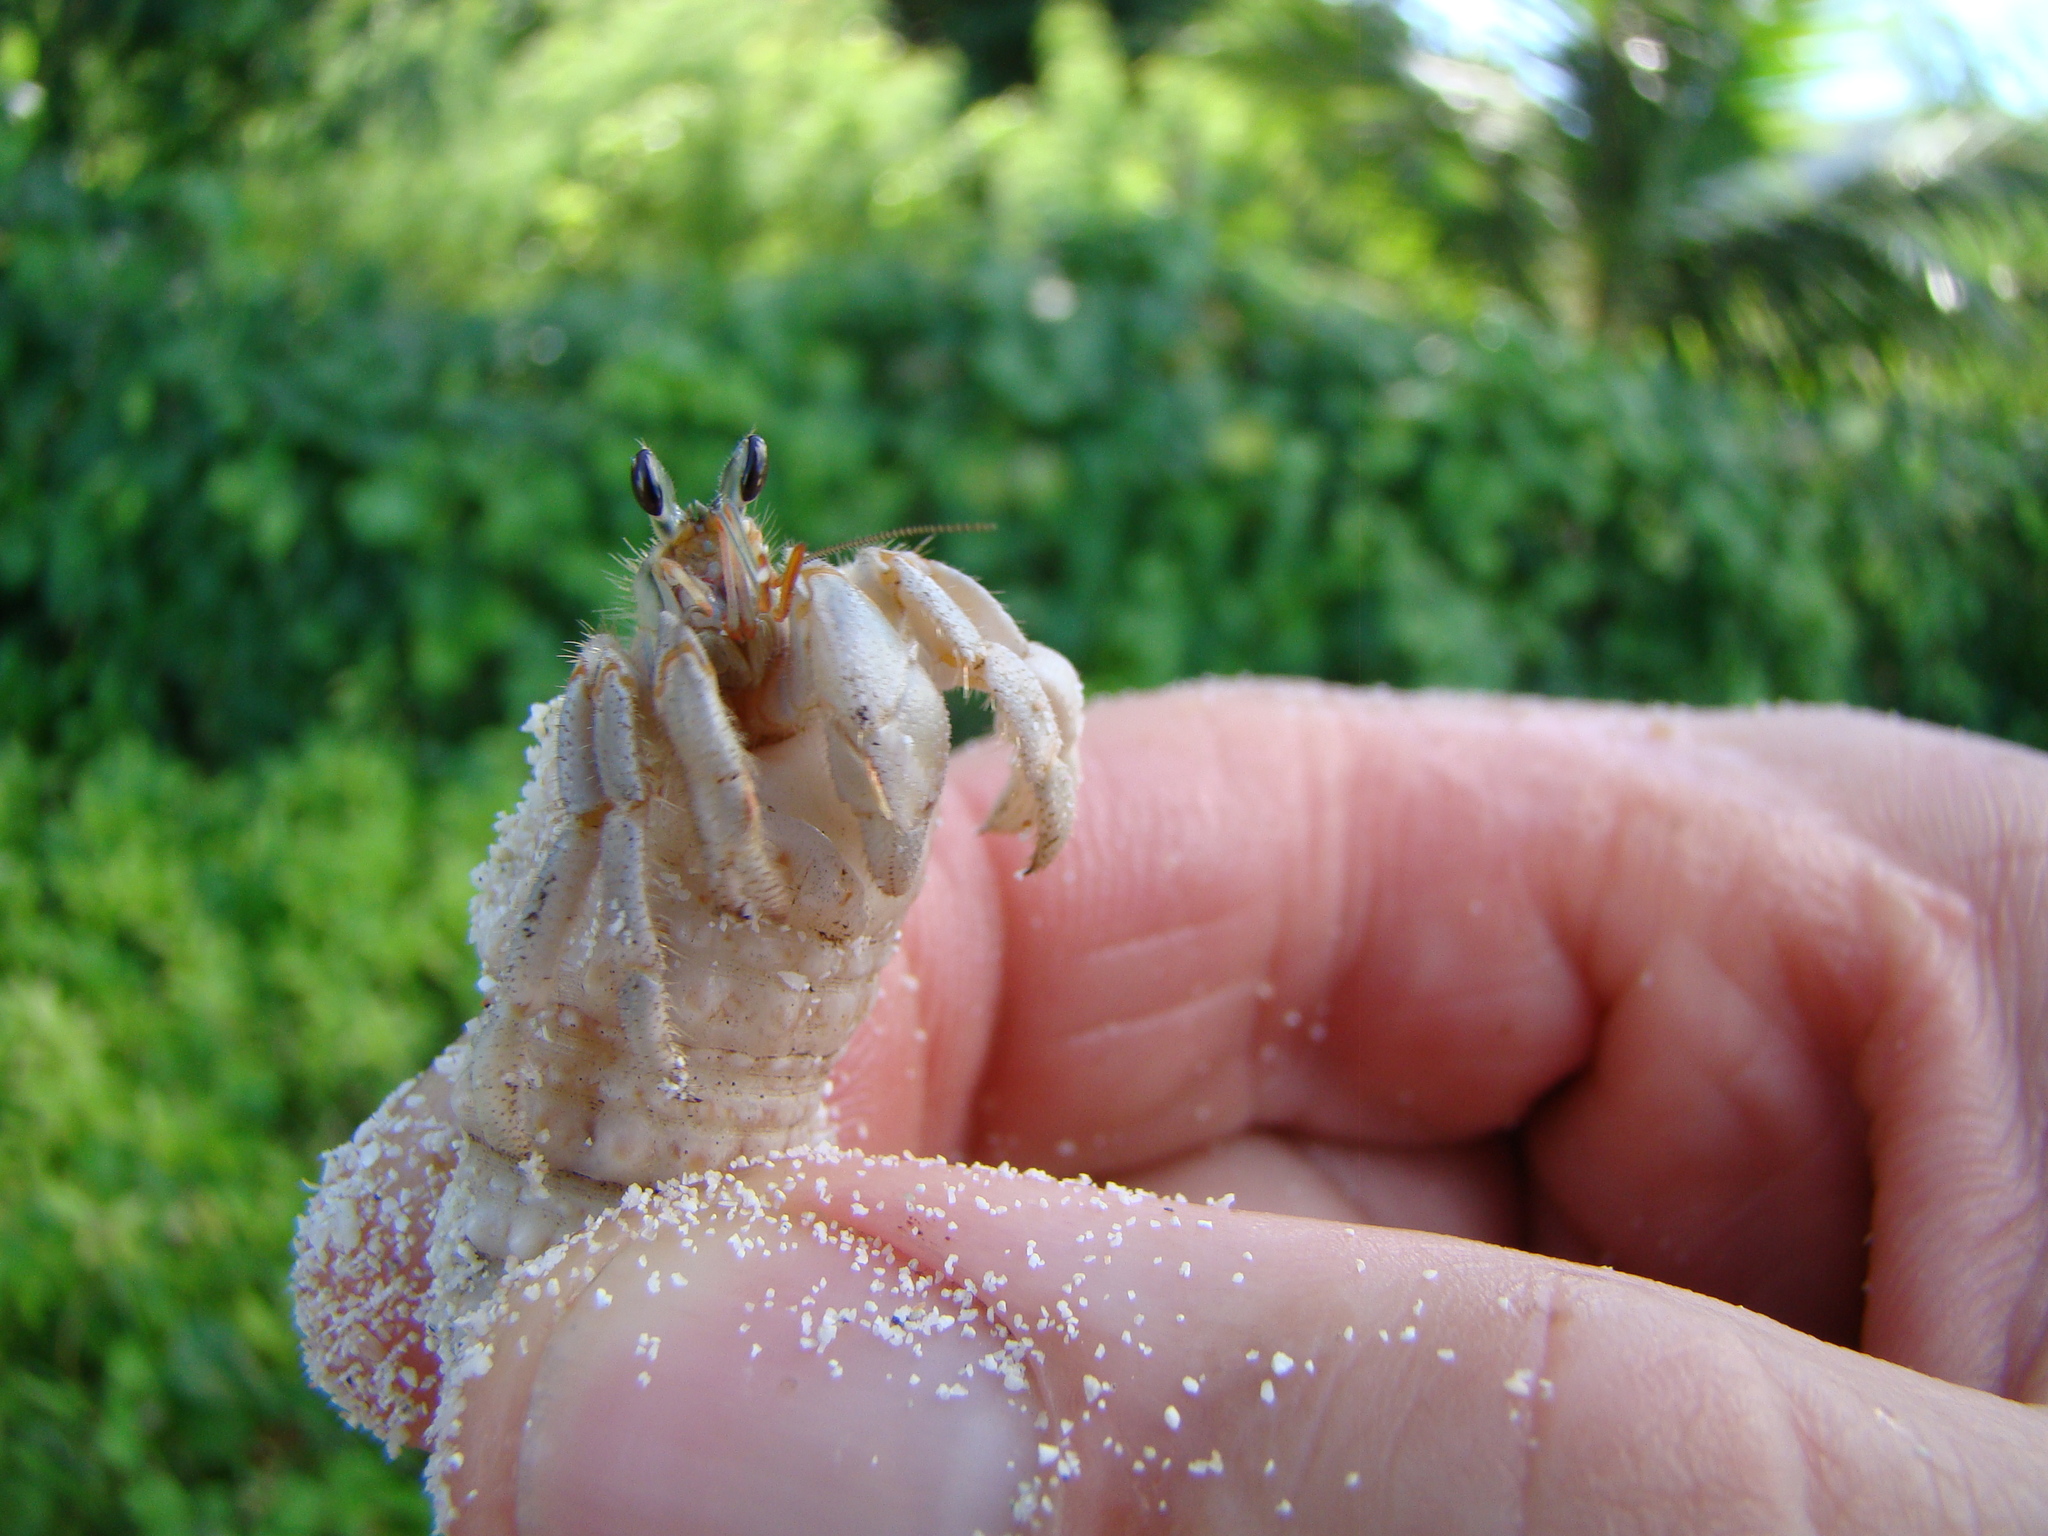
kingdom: Animalia
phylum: Arthropoda
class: Malacostraca
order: Decapoda
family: Coenobitidae
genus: Coenobita
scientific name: Coenobita rugosus
